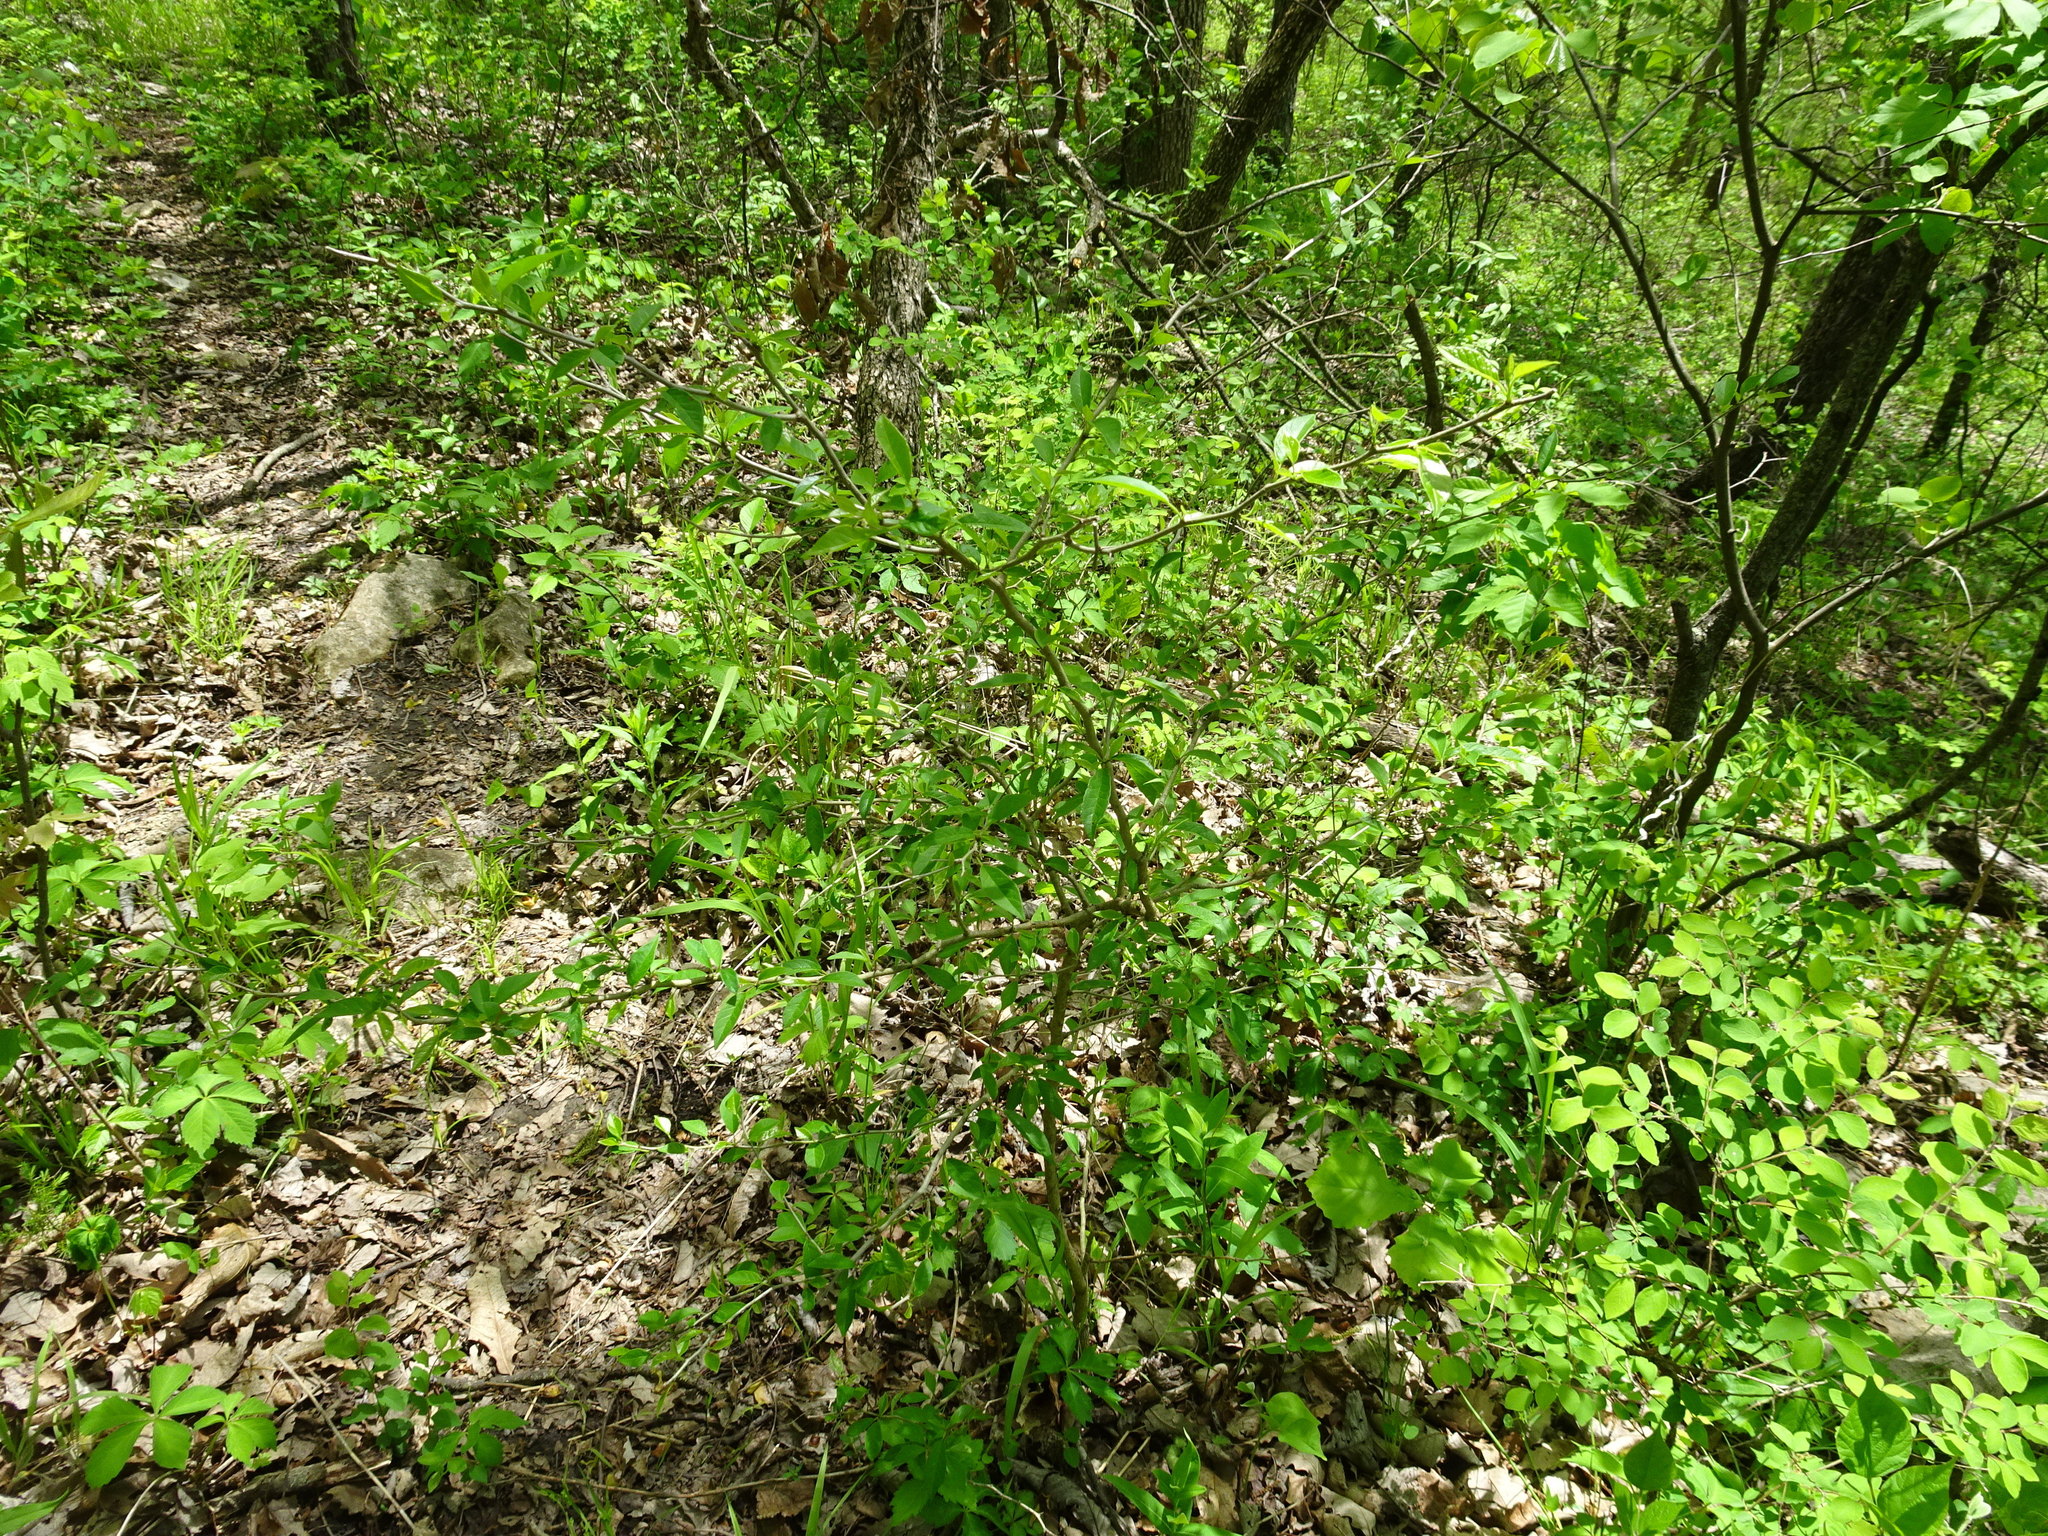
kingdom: Plantae
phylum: Tracheophyta
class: Magnoliopsida
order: Rosales
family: Moraceae
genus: Maclura
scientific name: Maclura pomifera
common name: Osage-orange
